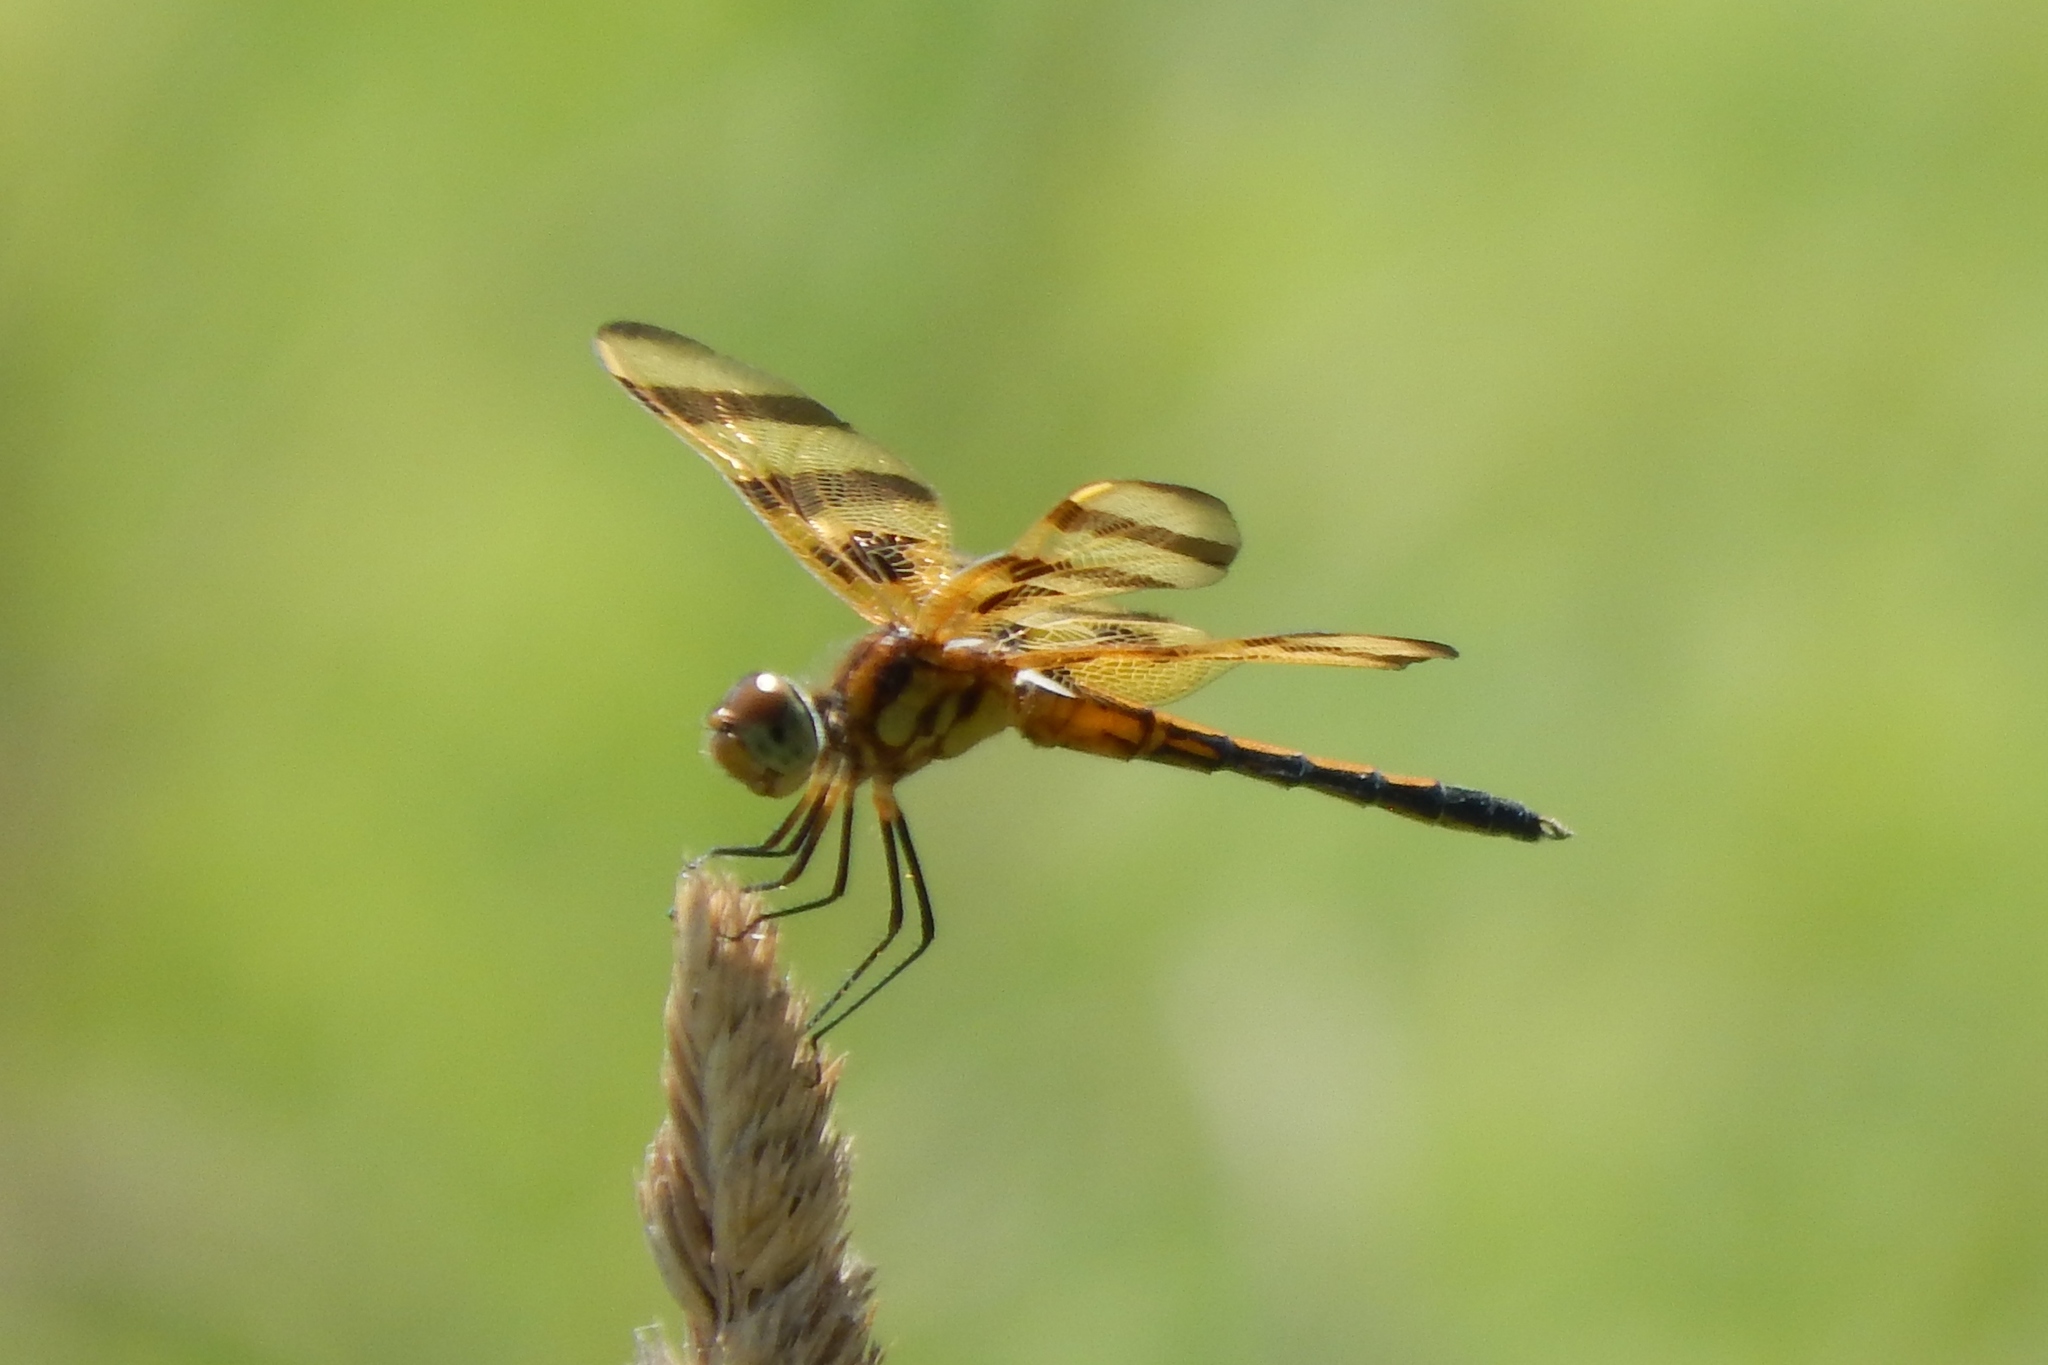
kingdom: Animalia
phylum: Arthropoda
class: Insecta
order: Odonata
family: Libellulidae
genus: Celithemis
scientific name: Celithemis eponina
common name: Halloween pennant
